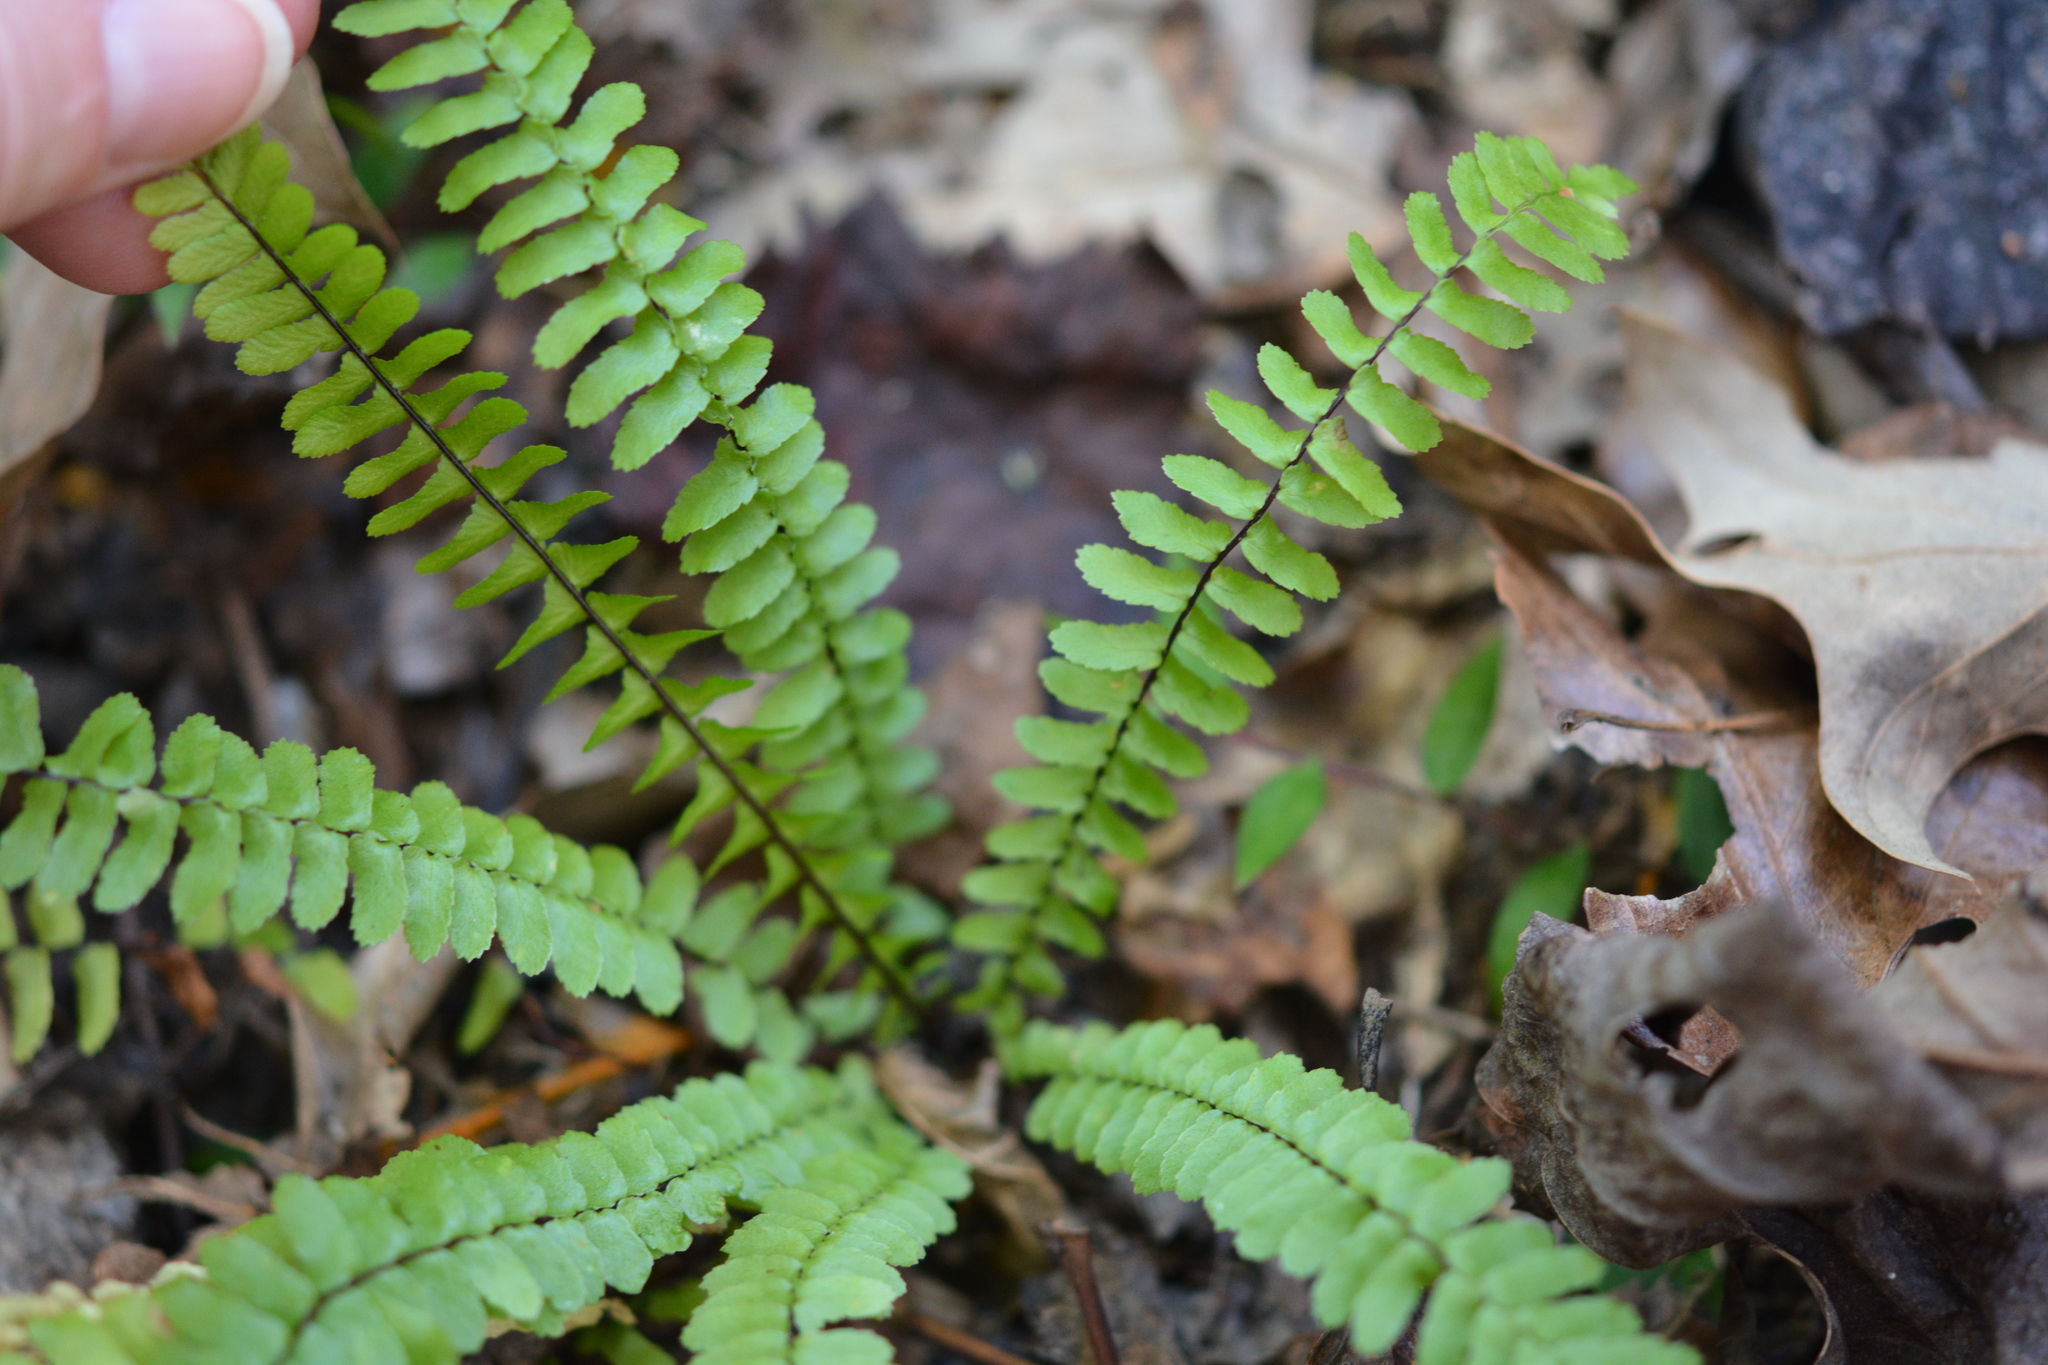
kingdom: Plantae
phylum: Tracheophyta
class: Polypodiopsida
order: Polypodiales
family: Aspleniaceae
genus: Asplenium
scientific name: Asplenium platyneuron
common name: Ebony spleenwort
